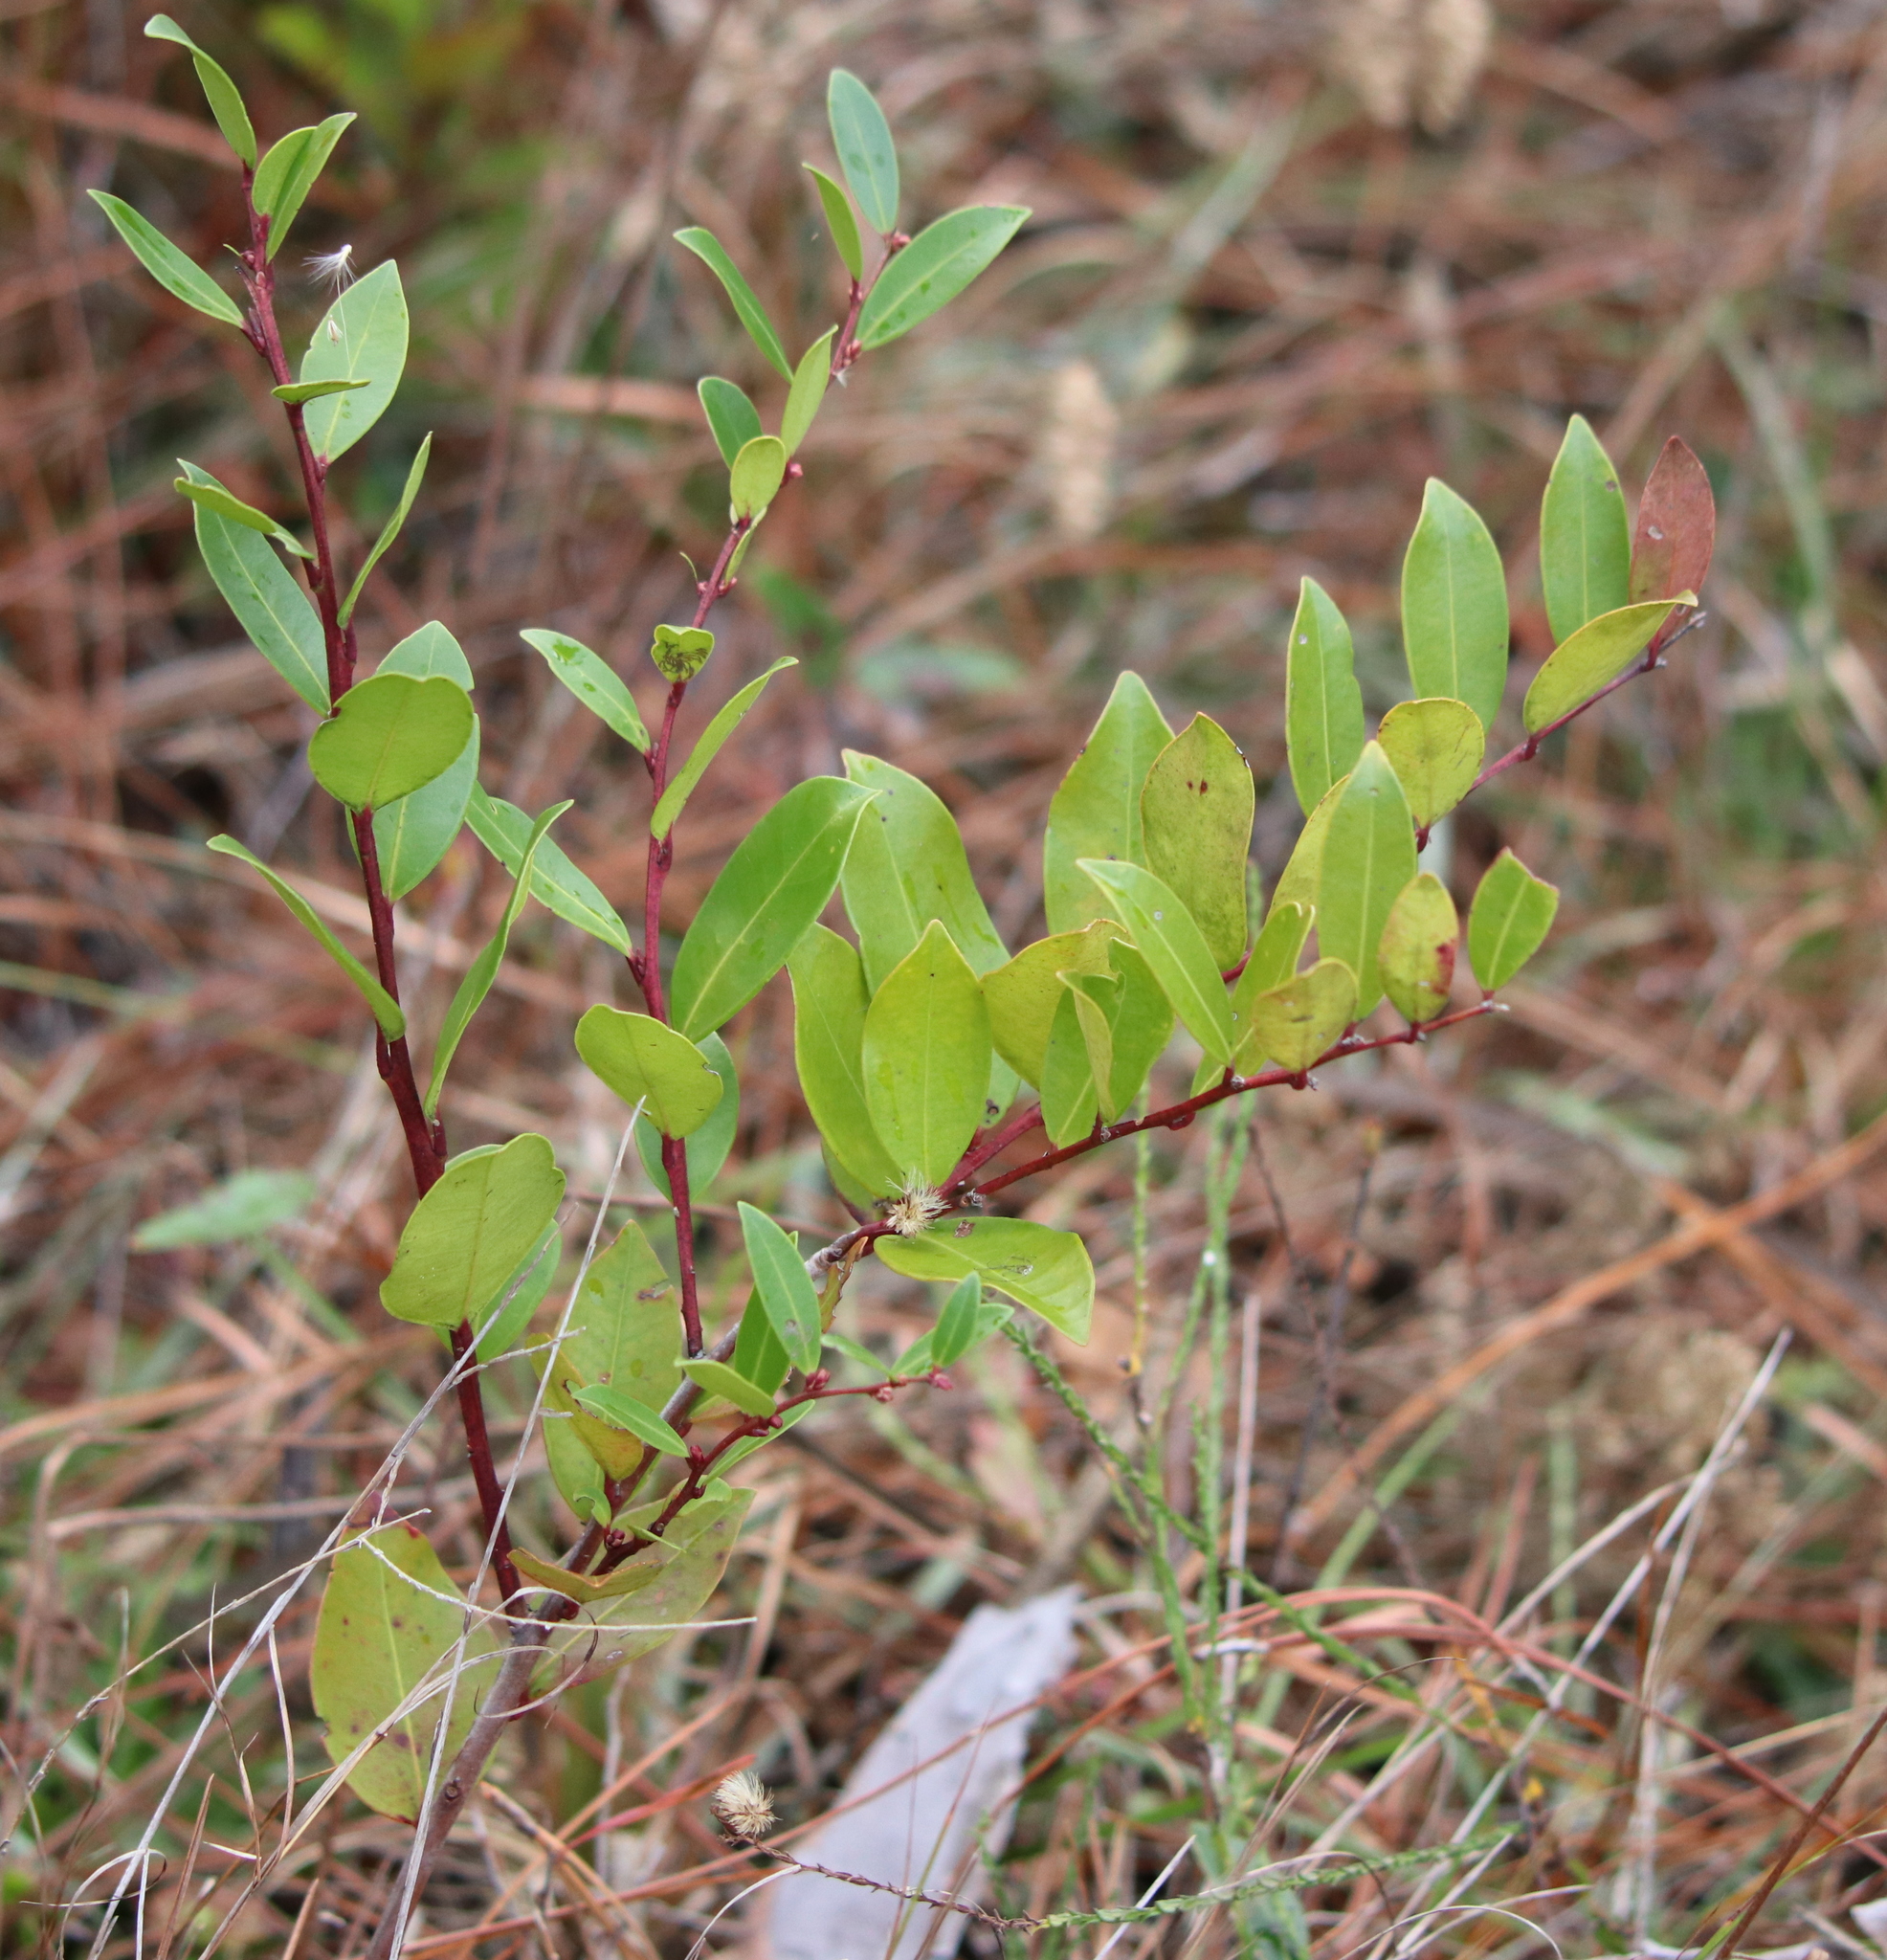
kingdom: Plantae
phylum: Tracheophyta
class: Magnoliopsida
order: Ericales
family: Ericaceae
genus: Lyonia
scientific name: Lyonia lucida
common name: Fetterbush
